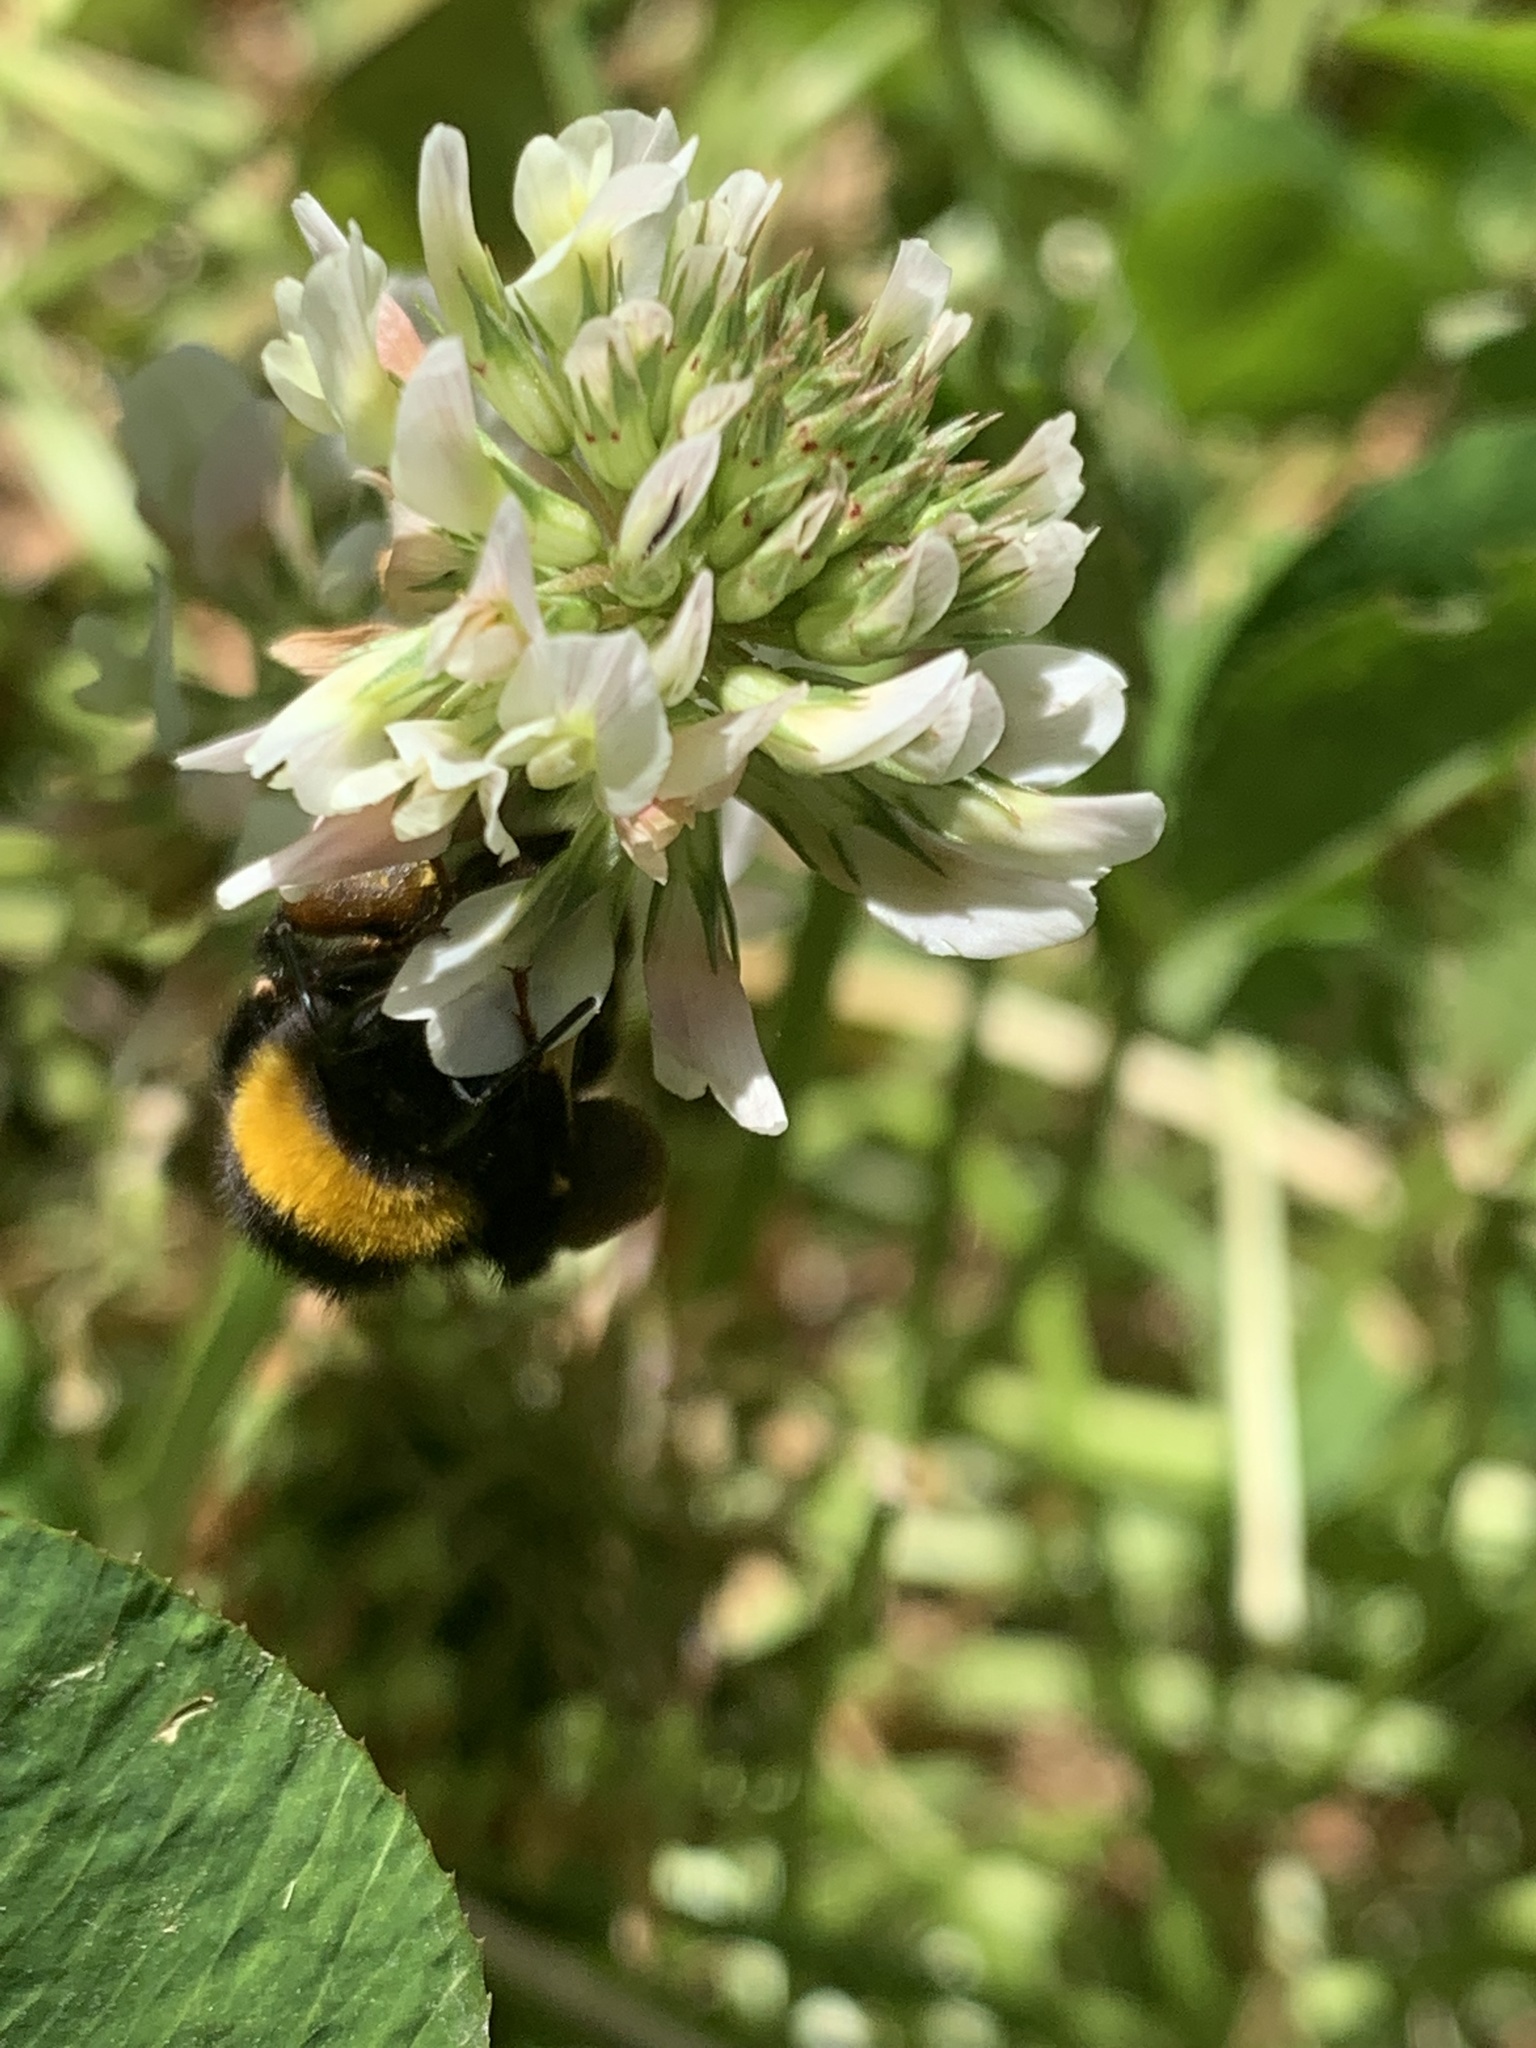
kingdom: Animalia
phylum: Arthropoda
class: Insecta
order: Hymenoptera
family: Apidae
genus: Bombus
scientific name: Bombus terrestris
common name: Buff-tailed bumblebee
